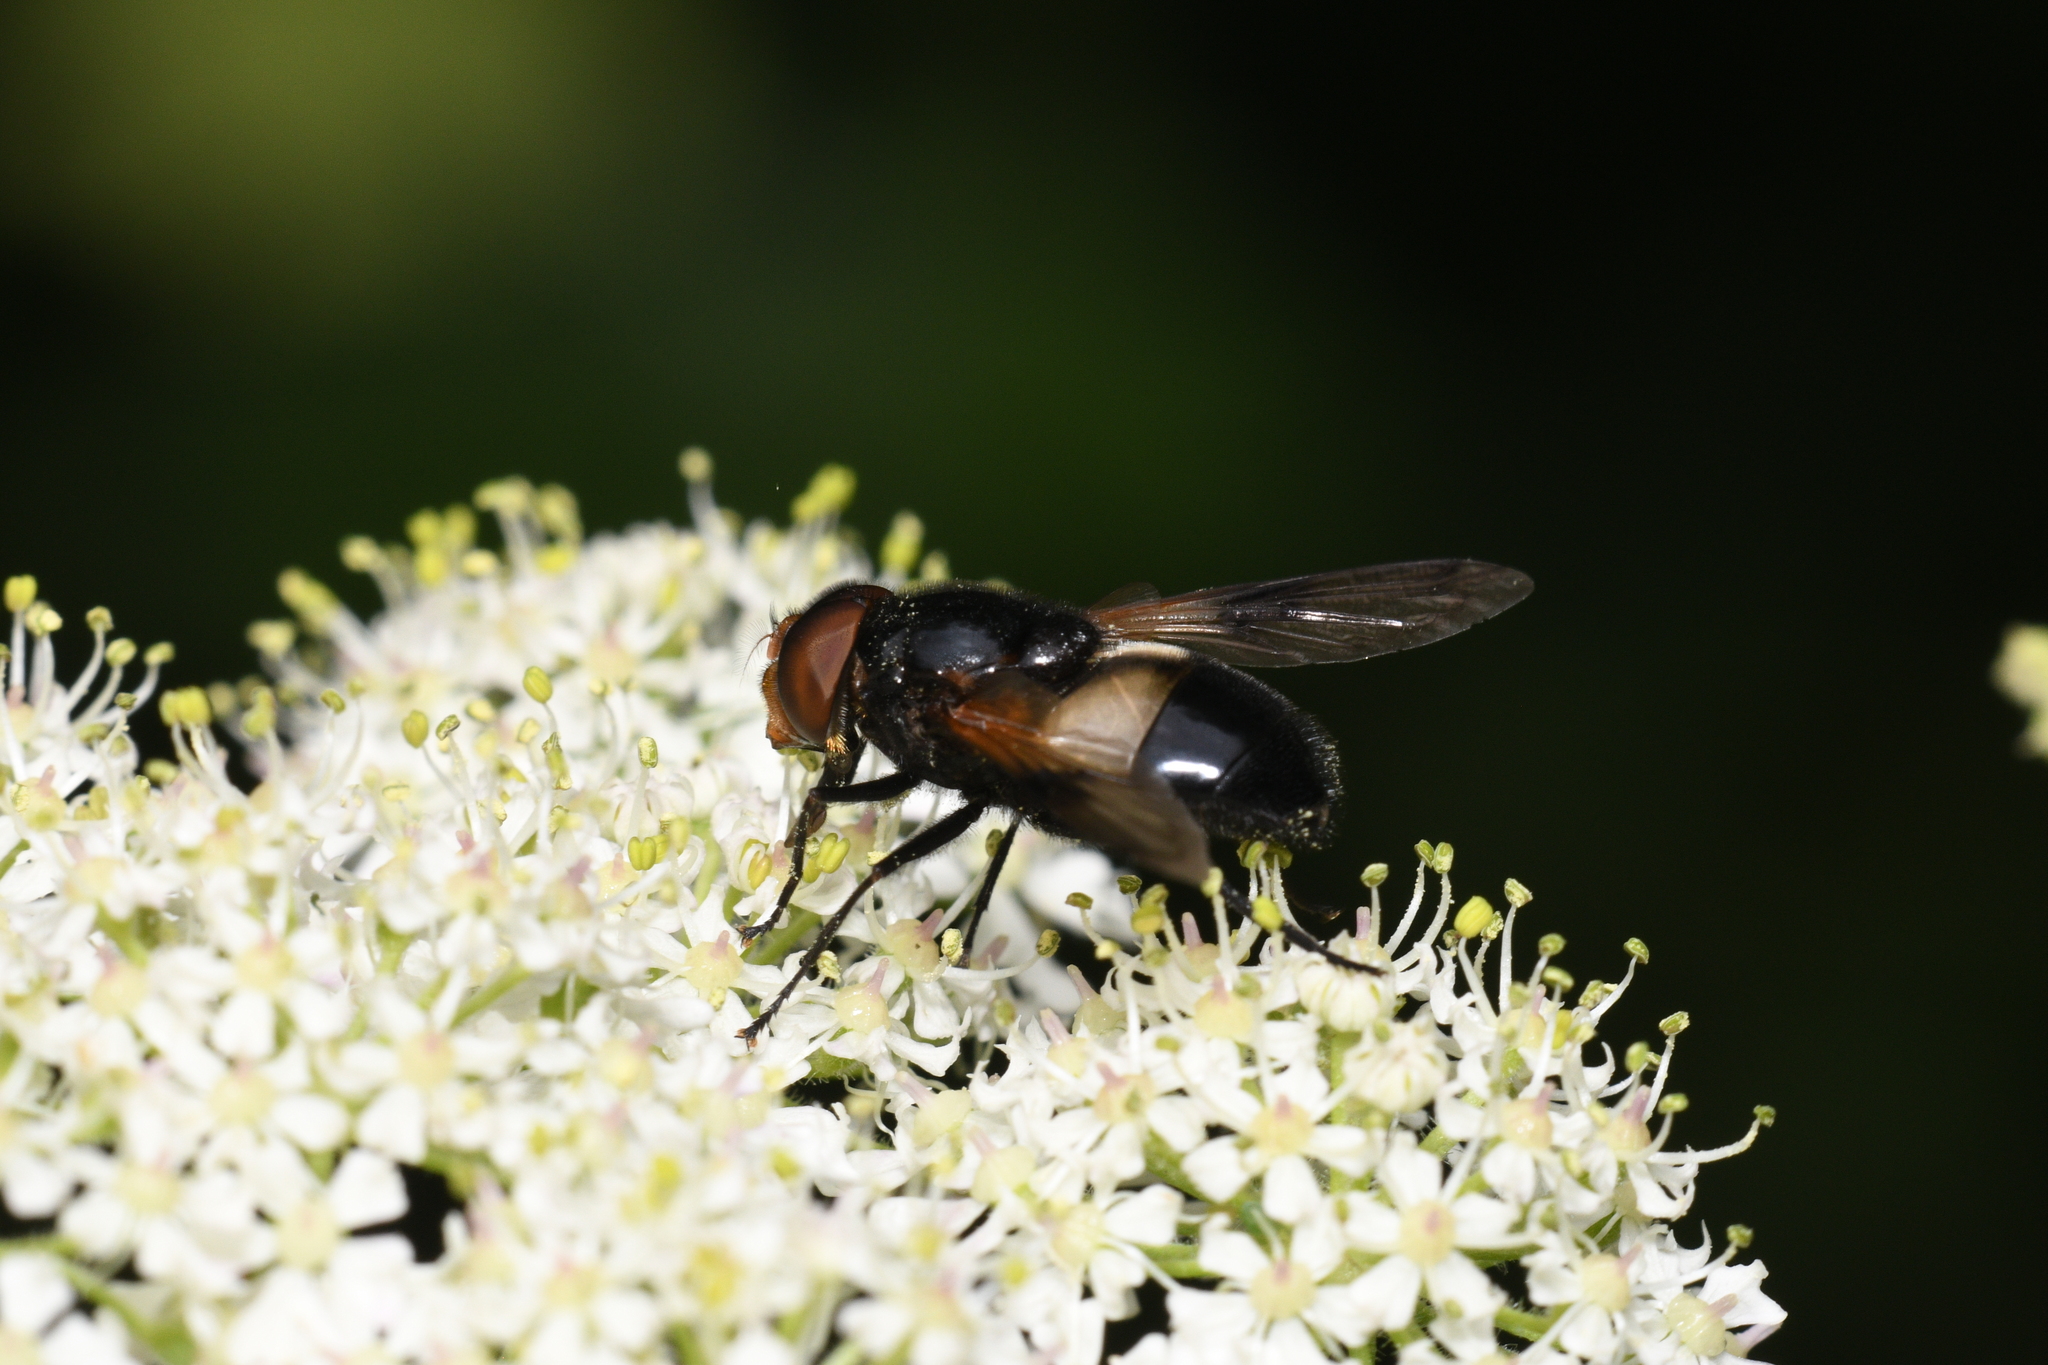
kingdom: Animalia
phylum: Arthropoda
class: Insecta
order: Diptera
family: Syrphidae
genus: Volucella
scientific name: Volucella pellucens
